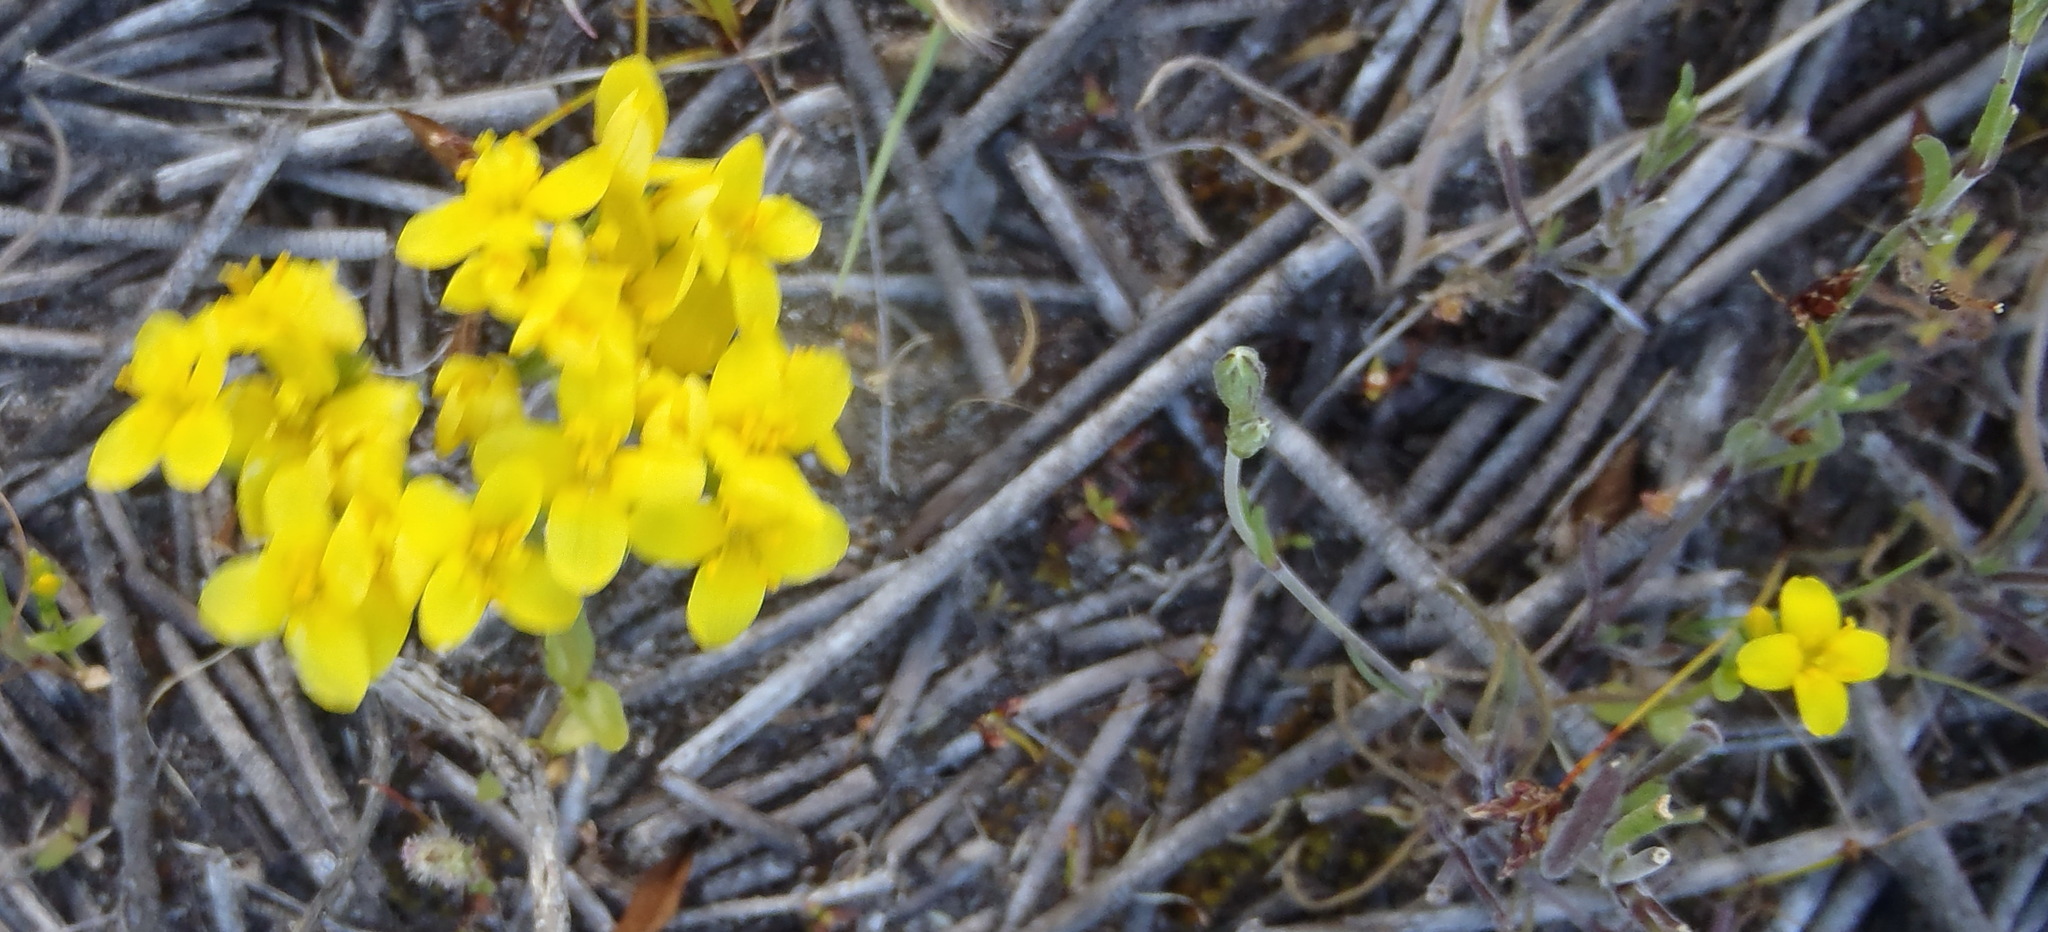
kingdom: Plantae
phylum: Tracheophyta
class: Magnoliopsida
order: Gentianales
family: Gentianaceae
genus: Sebaea
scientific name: Sebaea aurea
